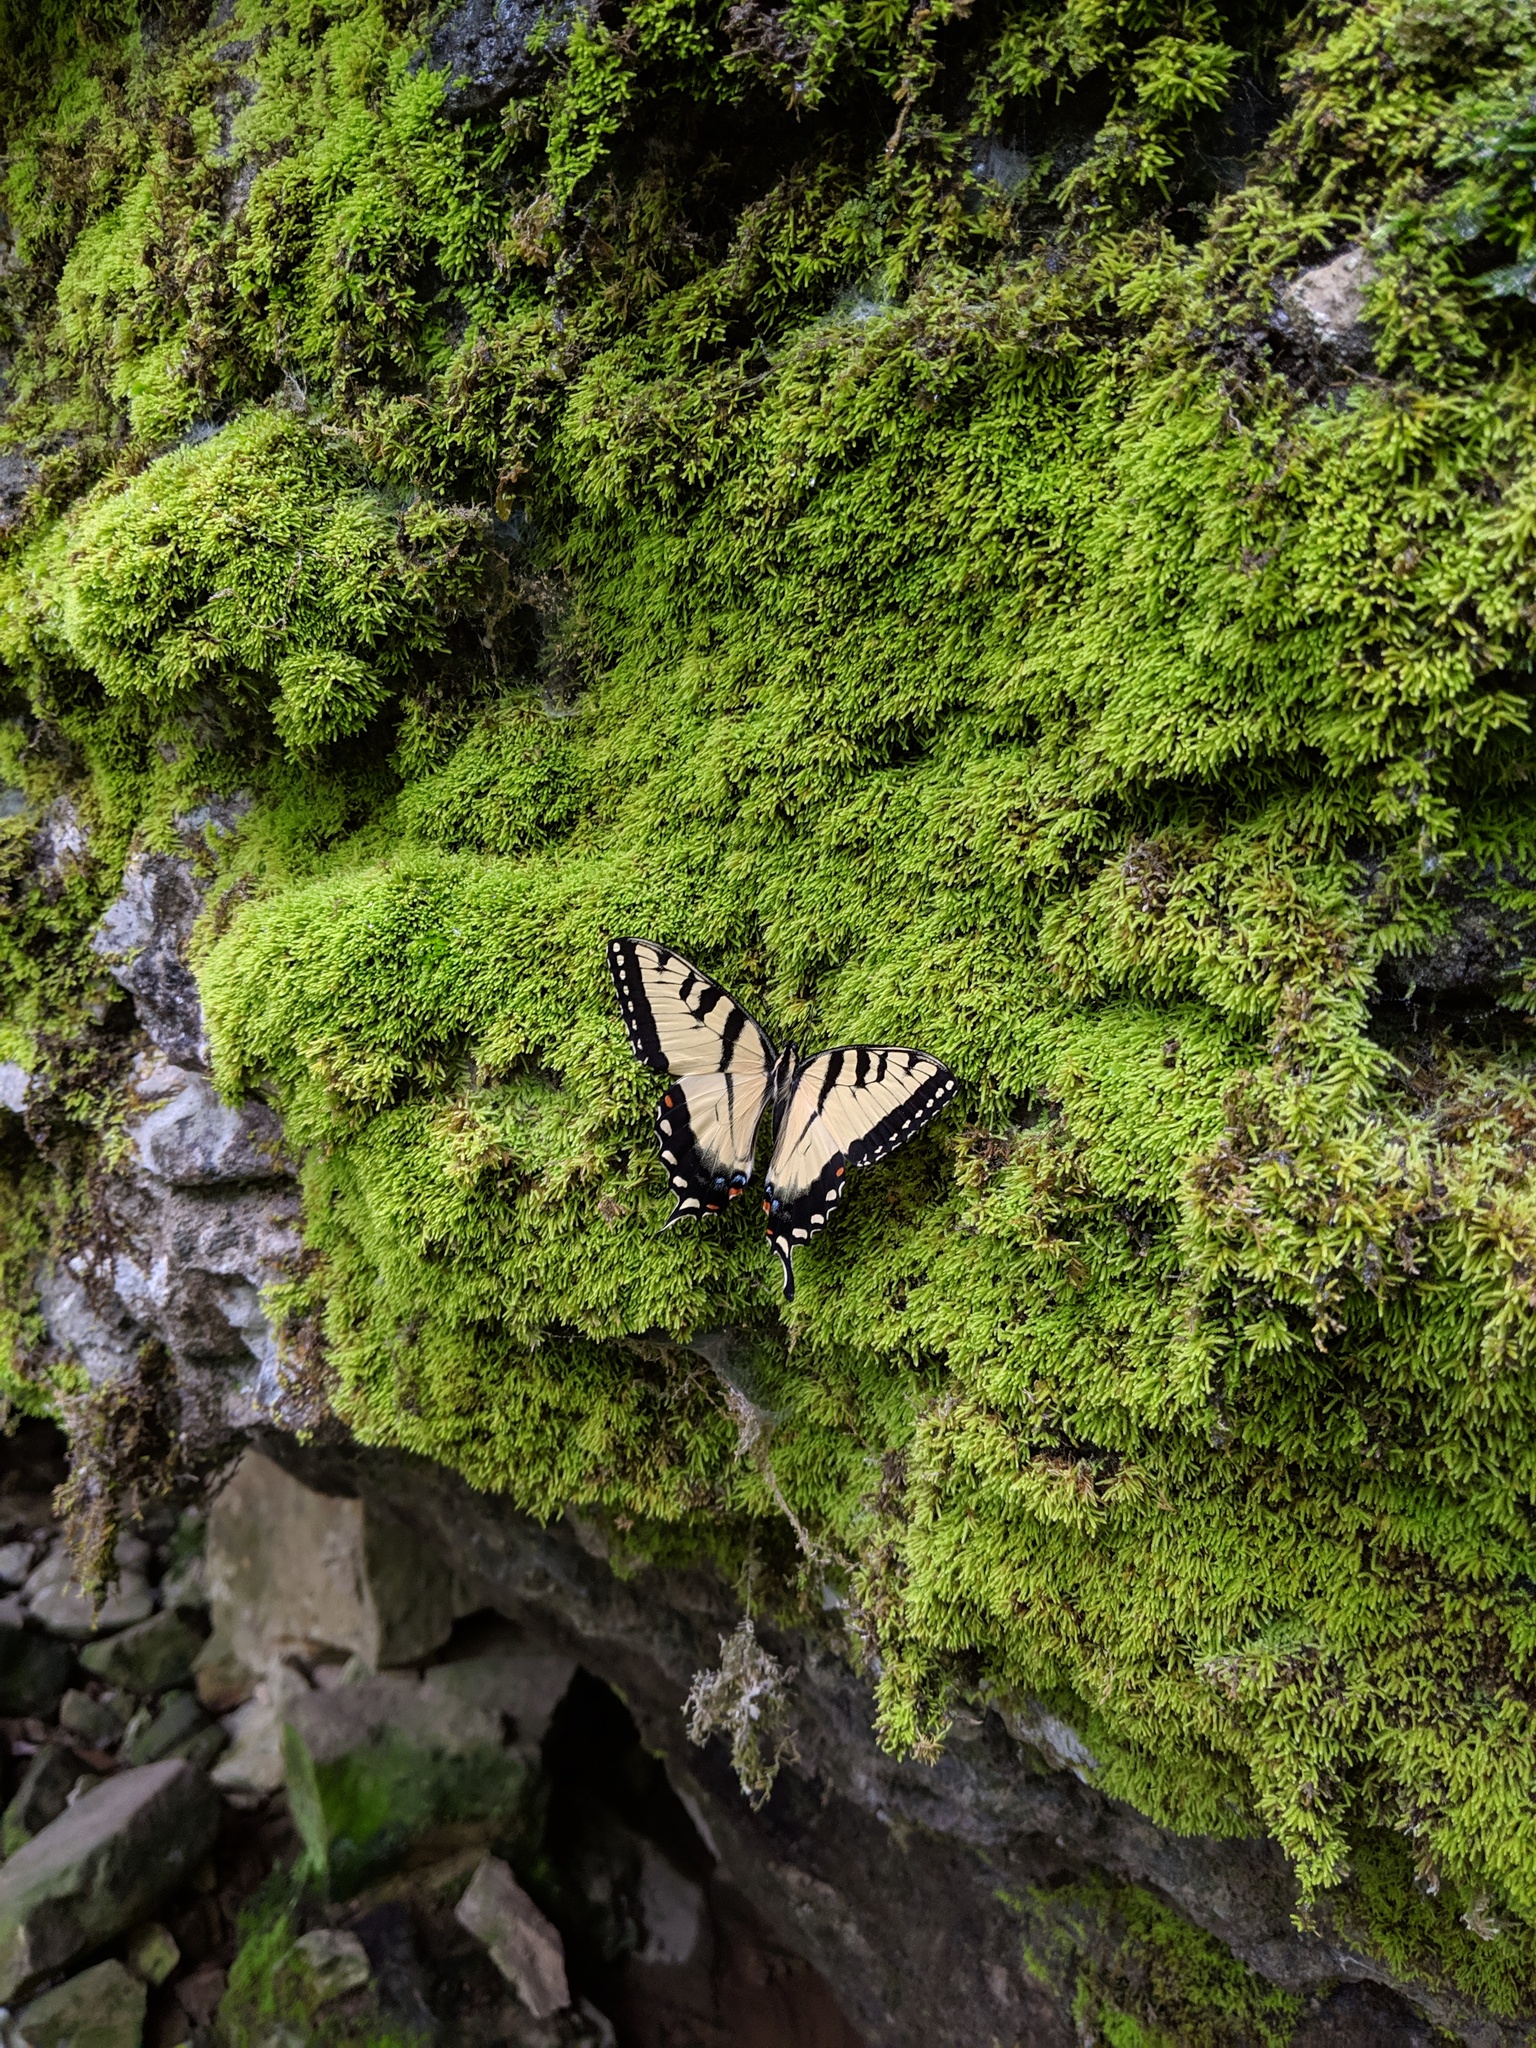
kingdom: Animalia
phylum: Arthropoda
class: Insecta
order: Lepidoptera
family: Papilionidae
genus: Papilio
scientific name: Papilio glaucus
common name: Tiger swallowtail
